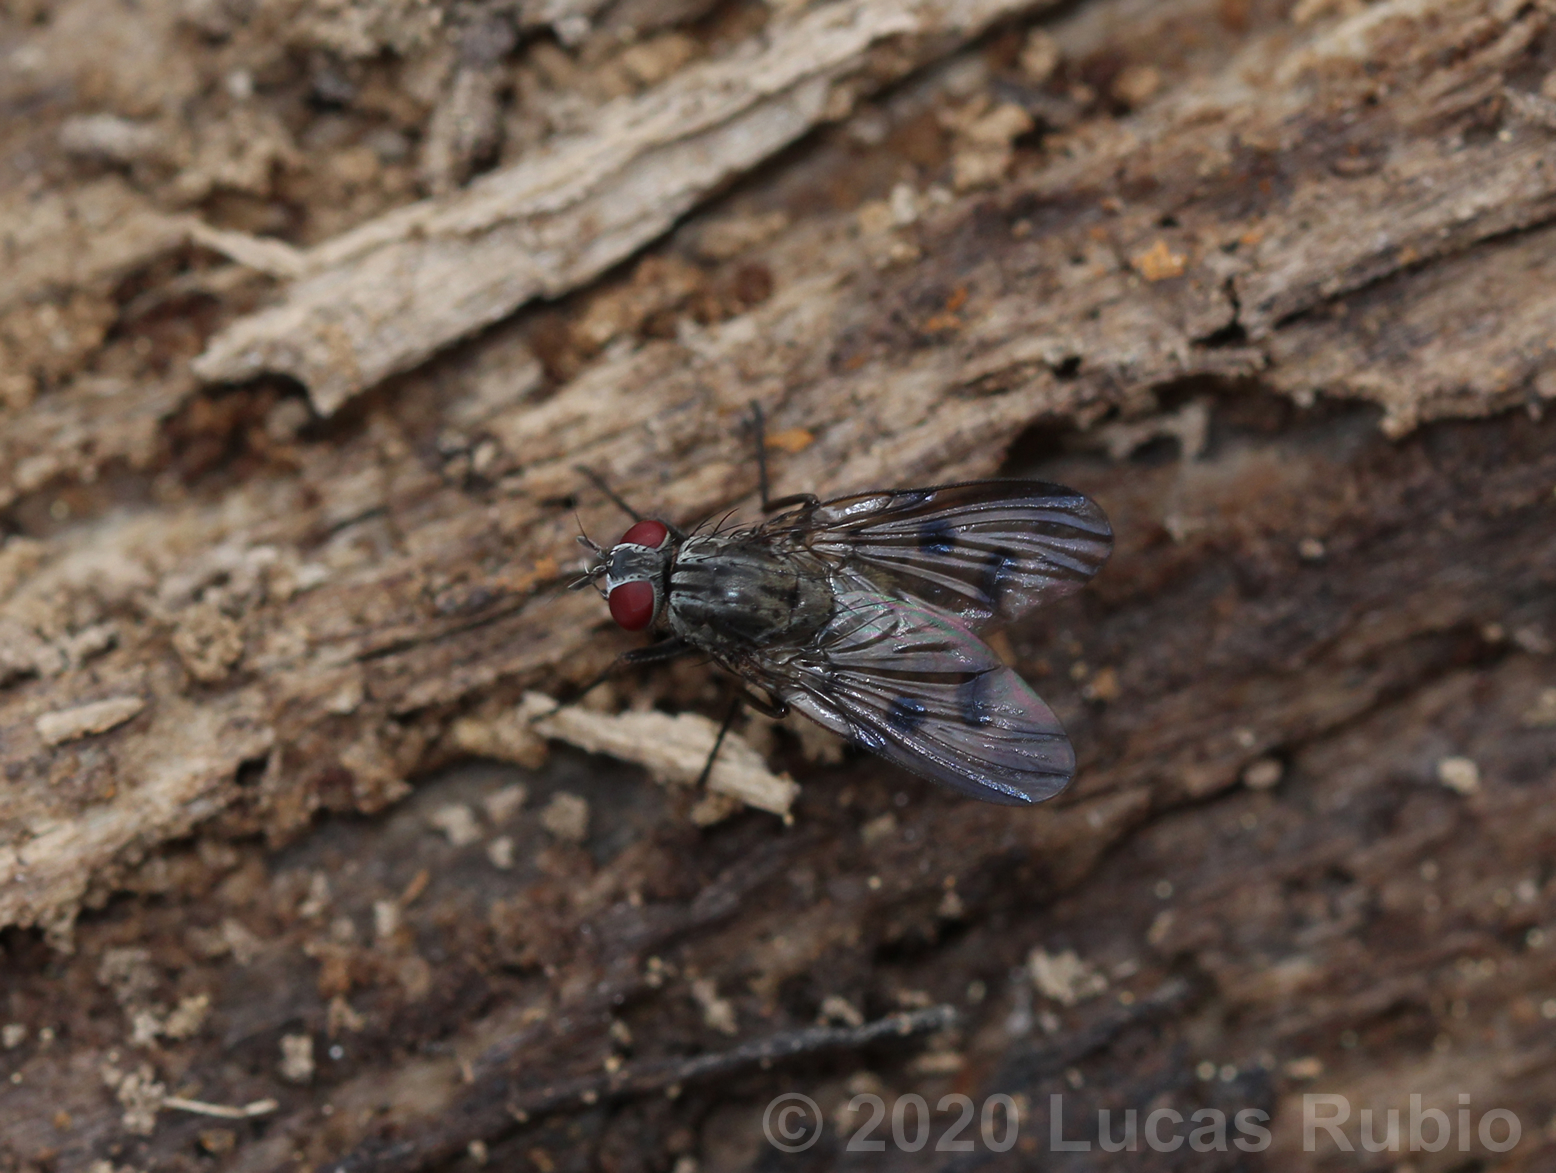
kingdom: Animalia
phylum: Arthropoda
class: Insecta
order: Diptera
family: Muscidae
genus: Phaonia
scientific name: Phaonia trispila
